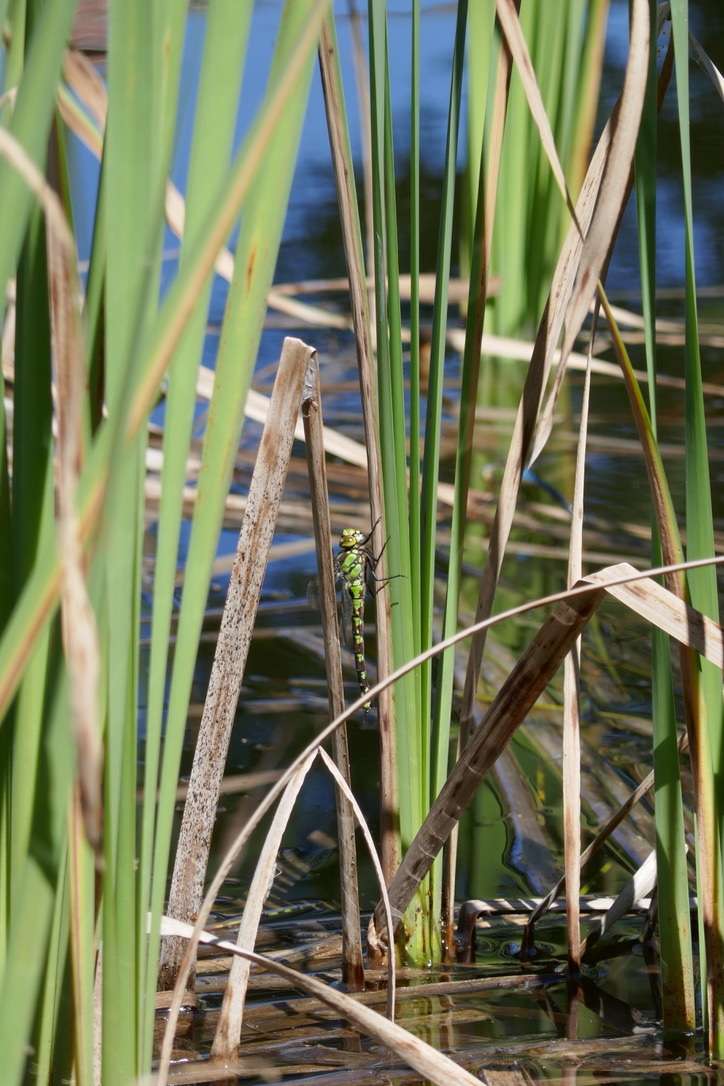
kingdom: Animalia
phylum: Arthropoda
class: Insecta
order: Odonata
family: Aeshnidae
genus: Aeshna
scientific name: Aeshna cyanea
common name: Southern hawker
